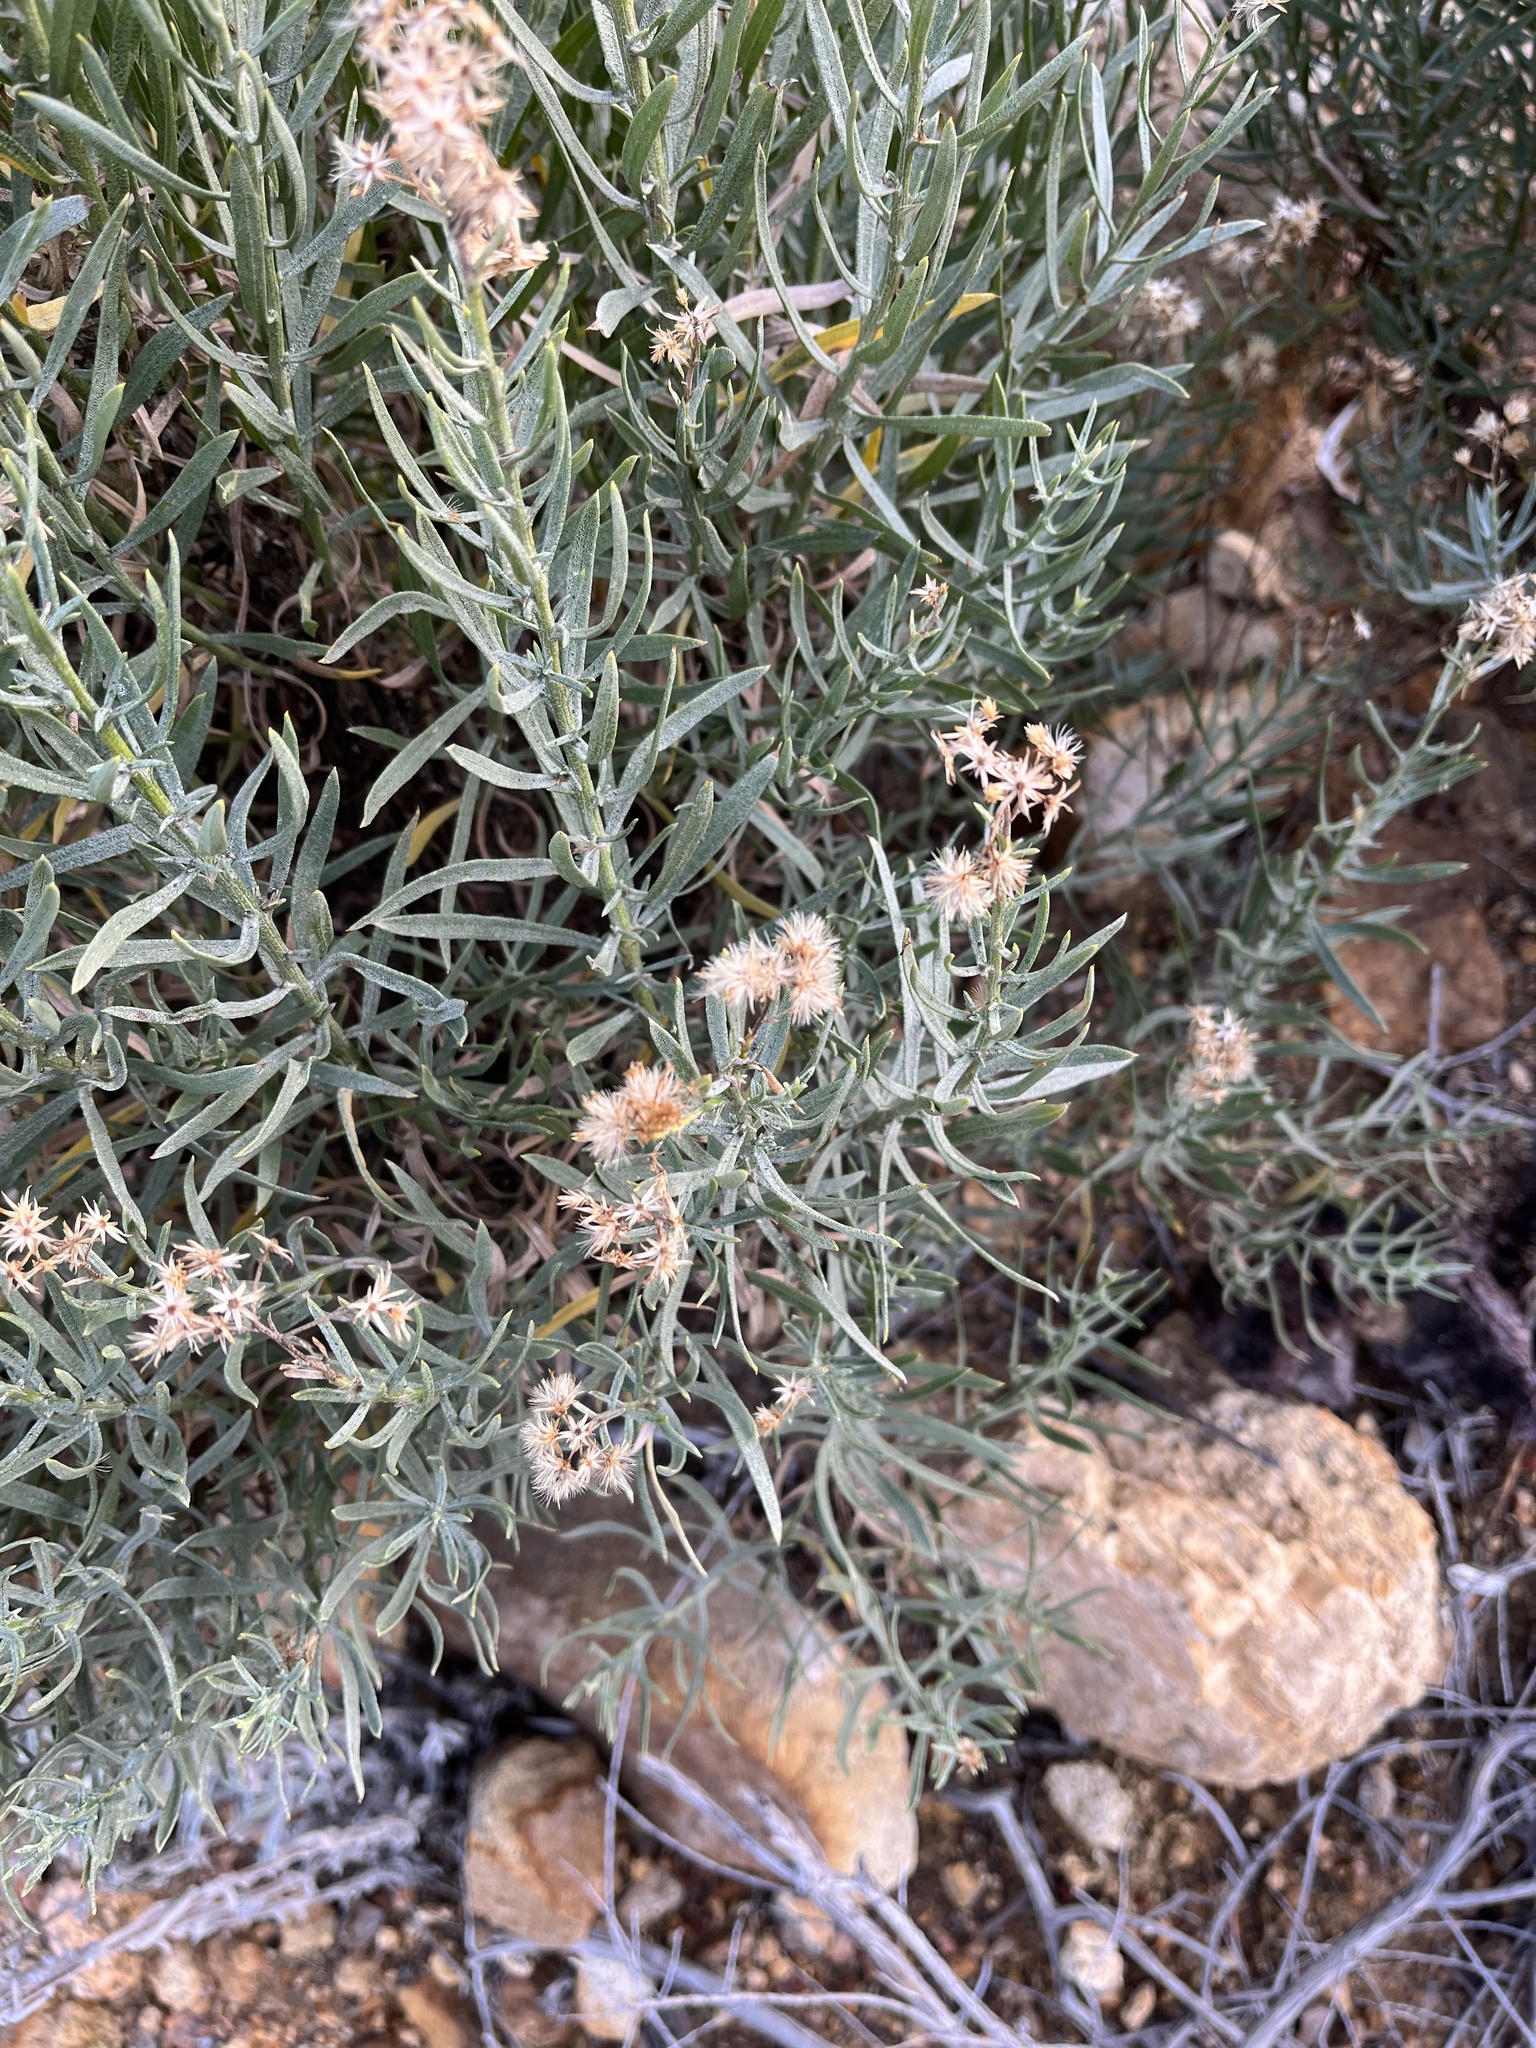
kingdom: Plantae
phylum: Tracheophyta
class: Magnoliopsida
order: Asterales
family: Asteraceae
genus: Ericameria
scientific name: Ericameria parishii
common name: Parish's goldenbush
